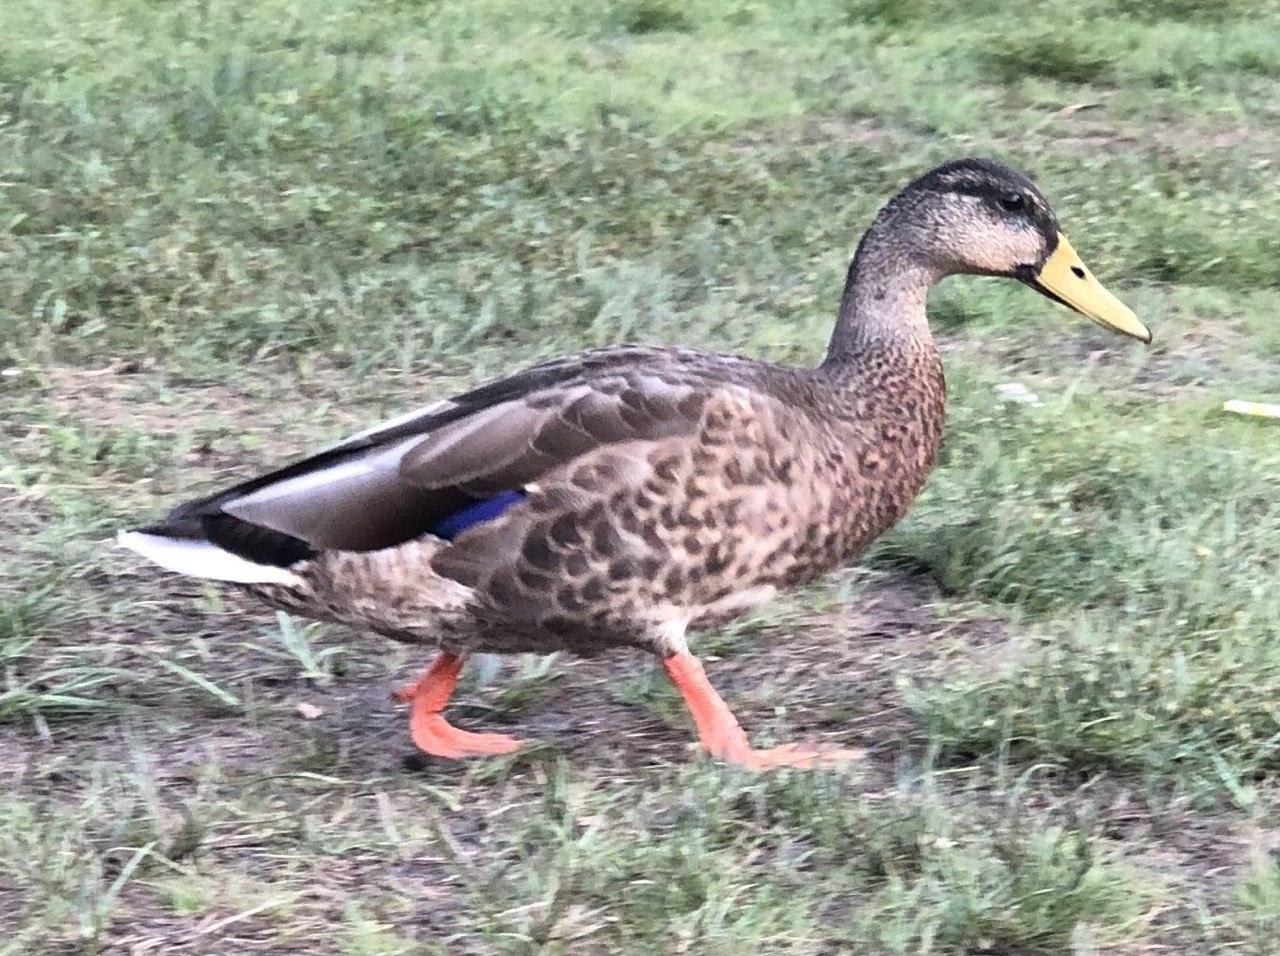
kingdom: Animalia
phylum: Chordata
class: Aves
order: Anseriformes
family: Anatidae
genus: Anas
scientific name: Anas platyrhynchos
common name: Mallard
